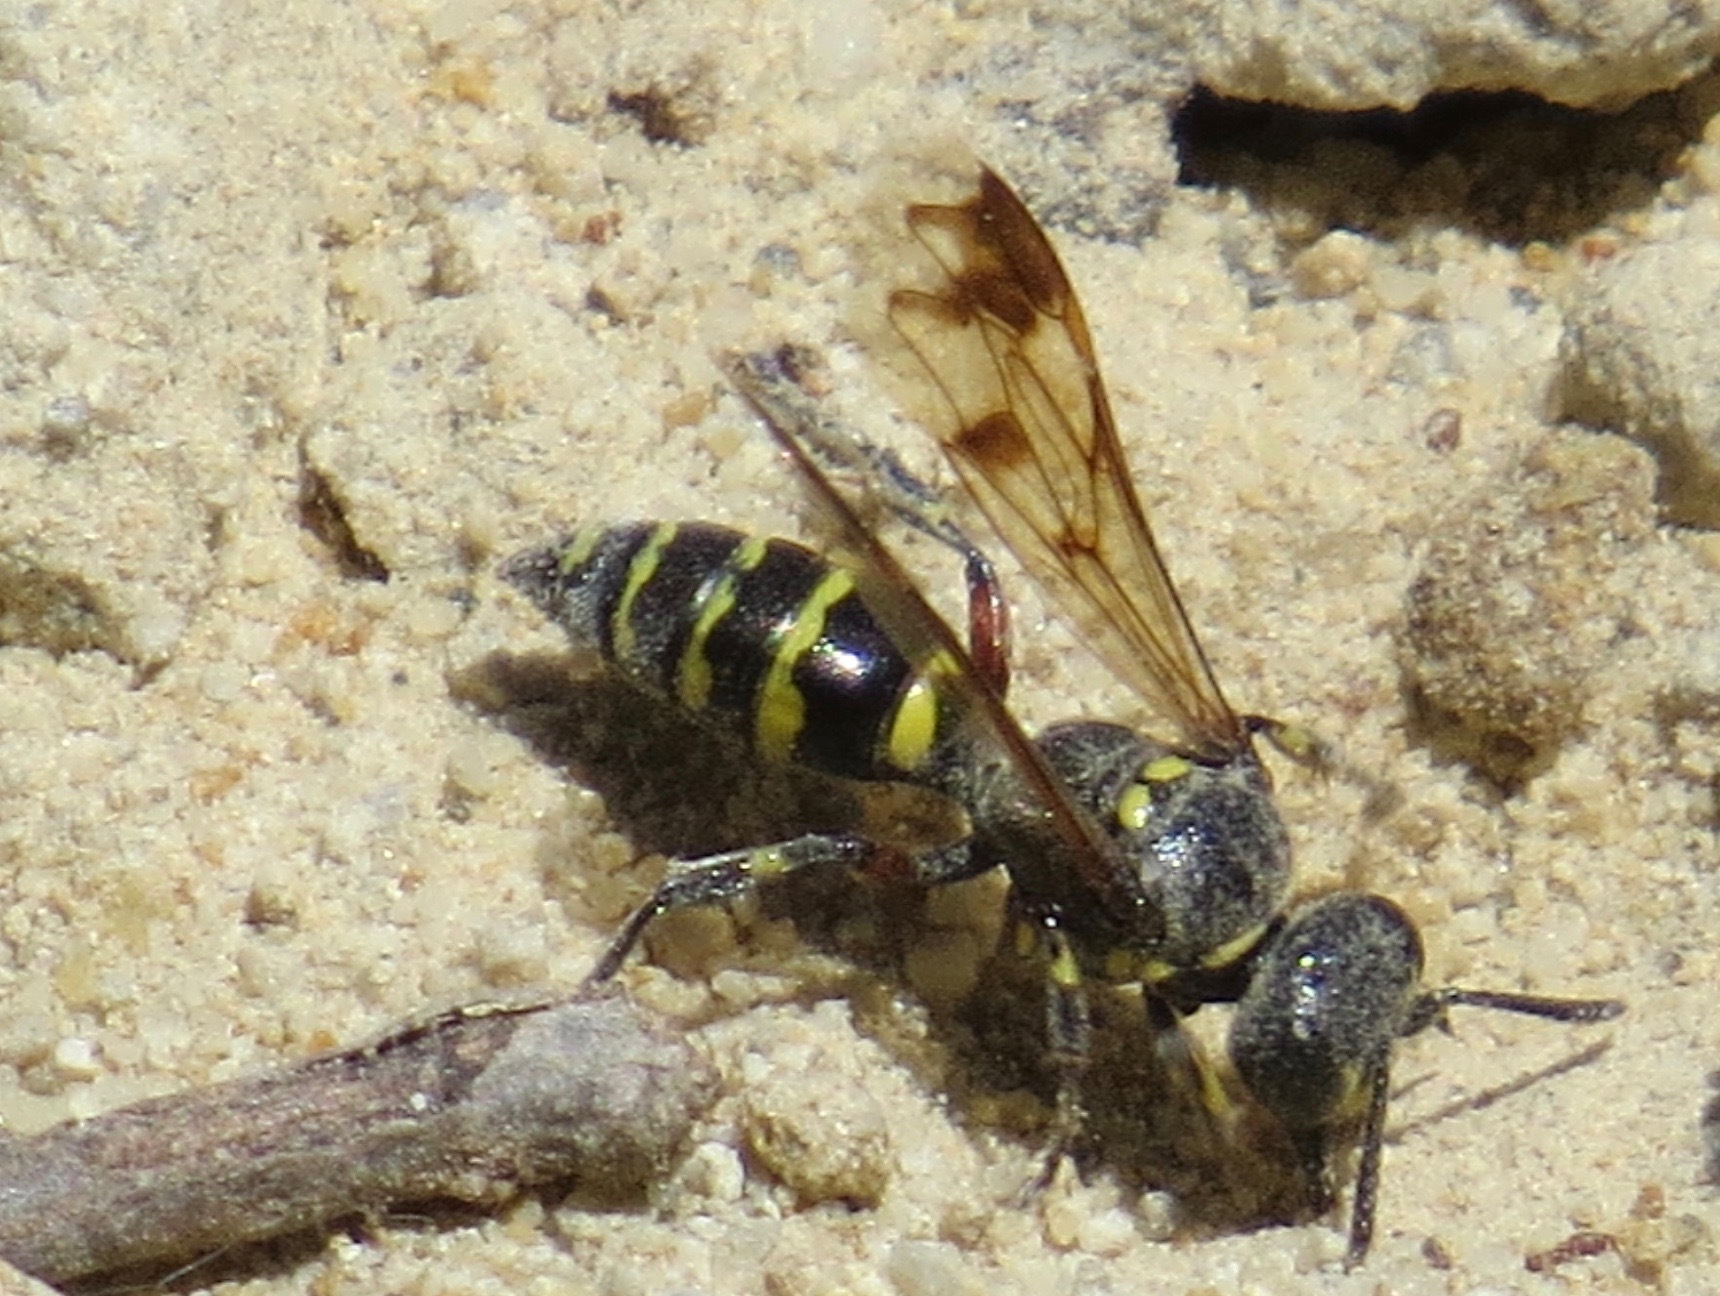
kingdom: Animalia
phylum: Arthropoda
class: Insecta
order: Hymenoptera
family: Crabronidae
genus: Hoplisoides
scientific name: Hoplisoides hamatus
